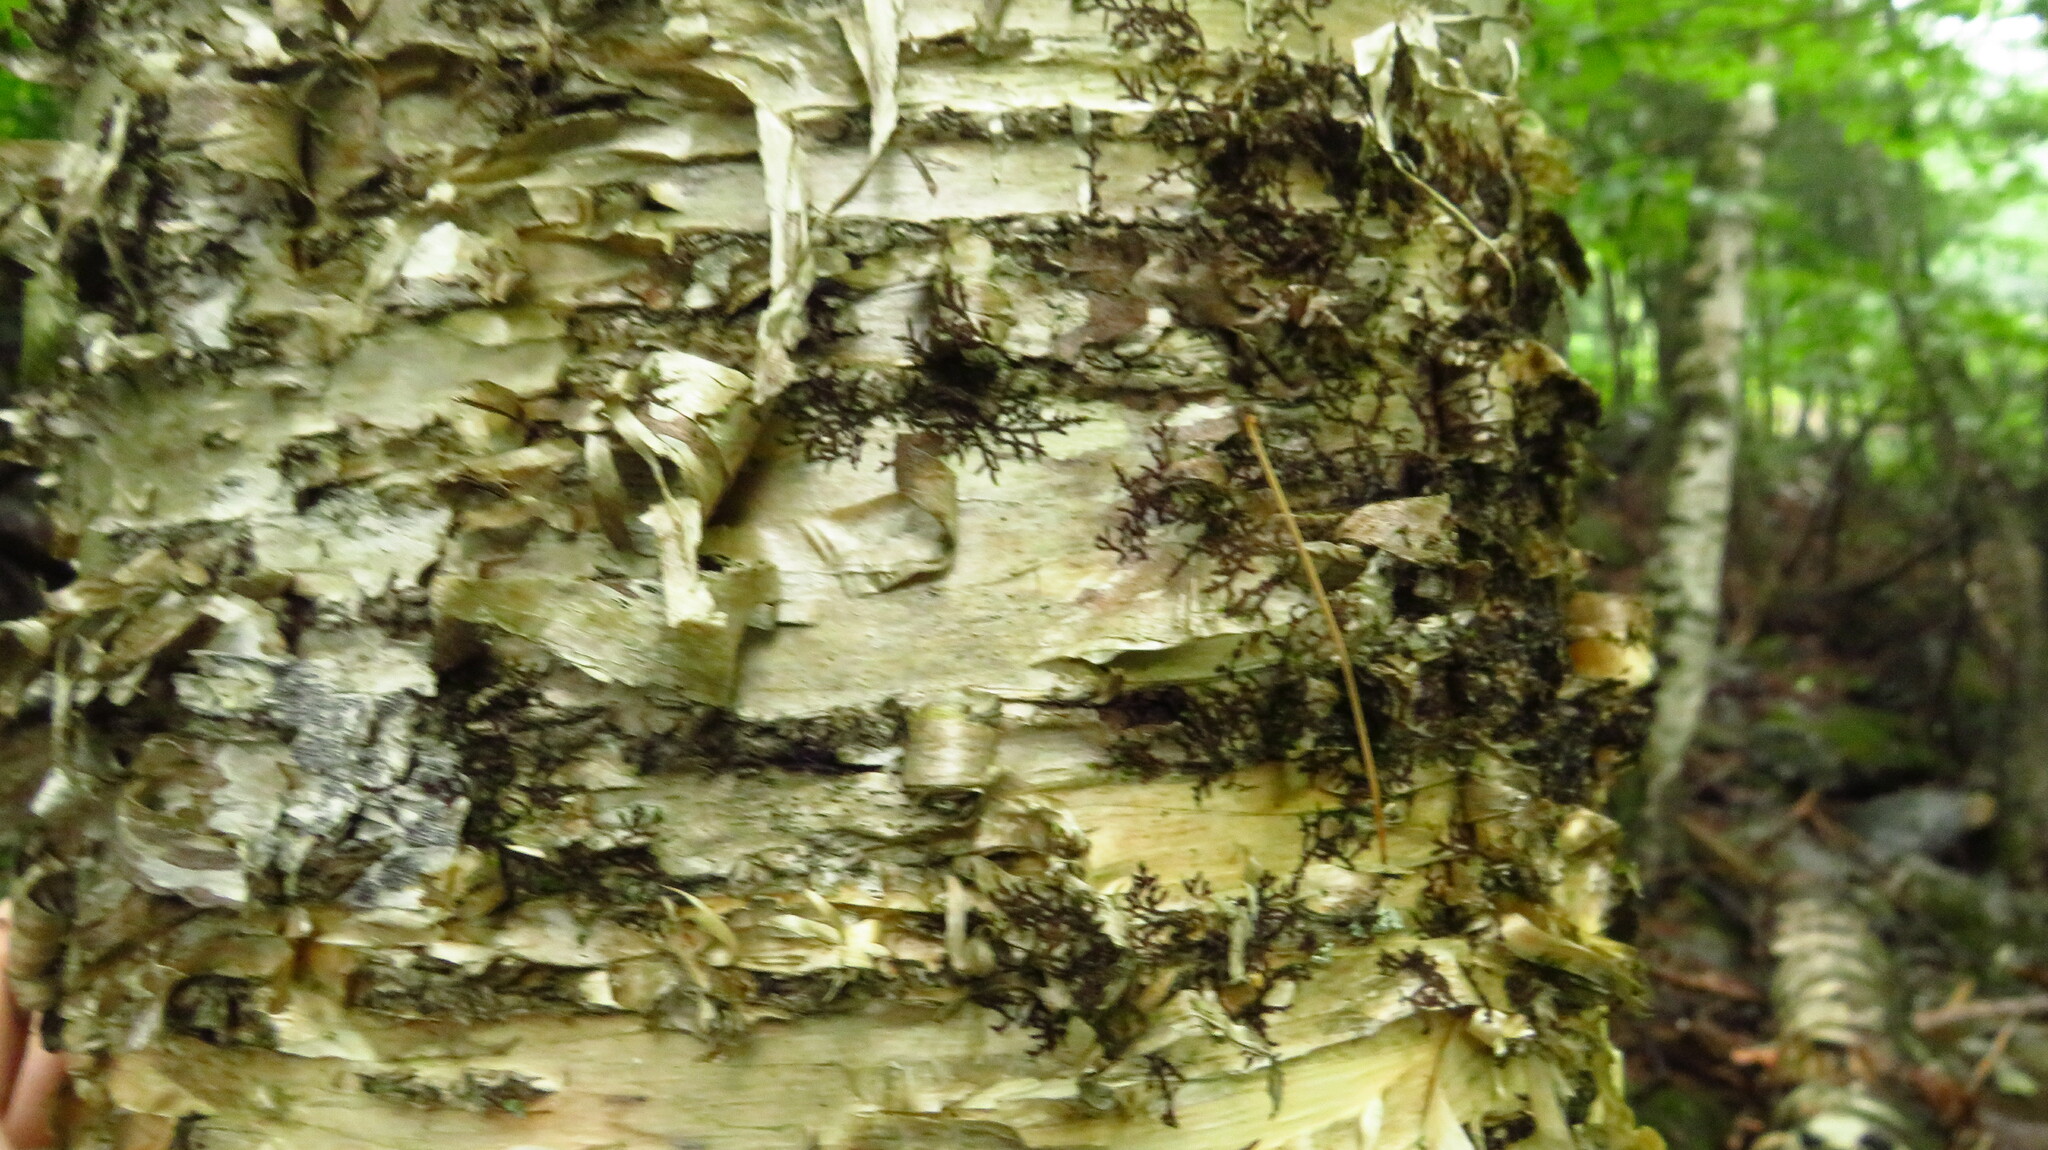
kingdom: Plantae
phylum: Tracheophyta
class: Magnoliopsida
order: Fagales
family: Betulaceae
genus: Betula
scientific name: Betula alleghaniensis
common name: Yellow birch
